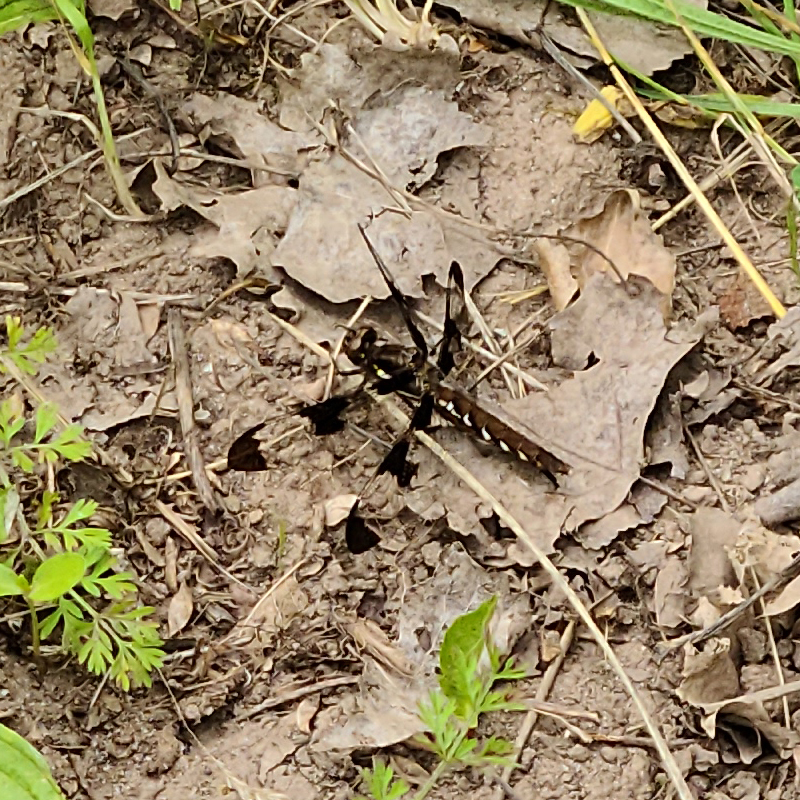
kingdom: Animalia
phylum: Arthropoda
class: Insecta
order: Odonata
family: Libellulidae
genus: Plathemis
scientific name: Plathemis lydia
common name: Common whitetail
